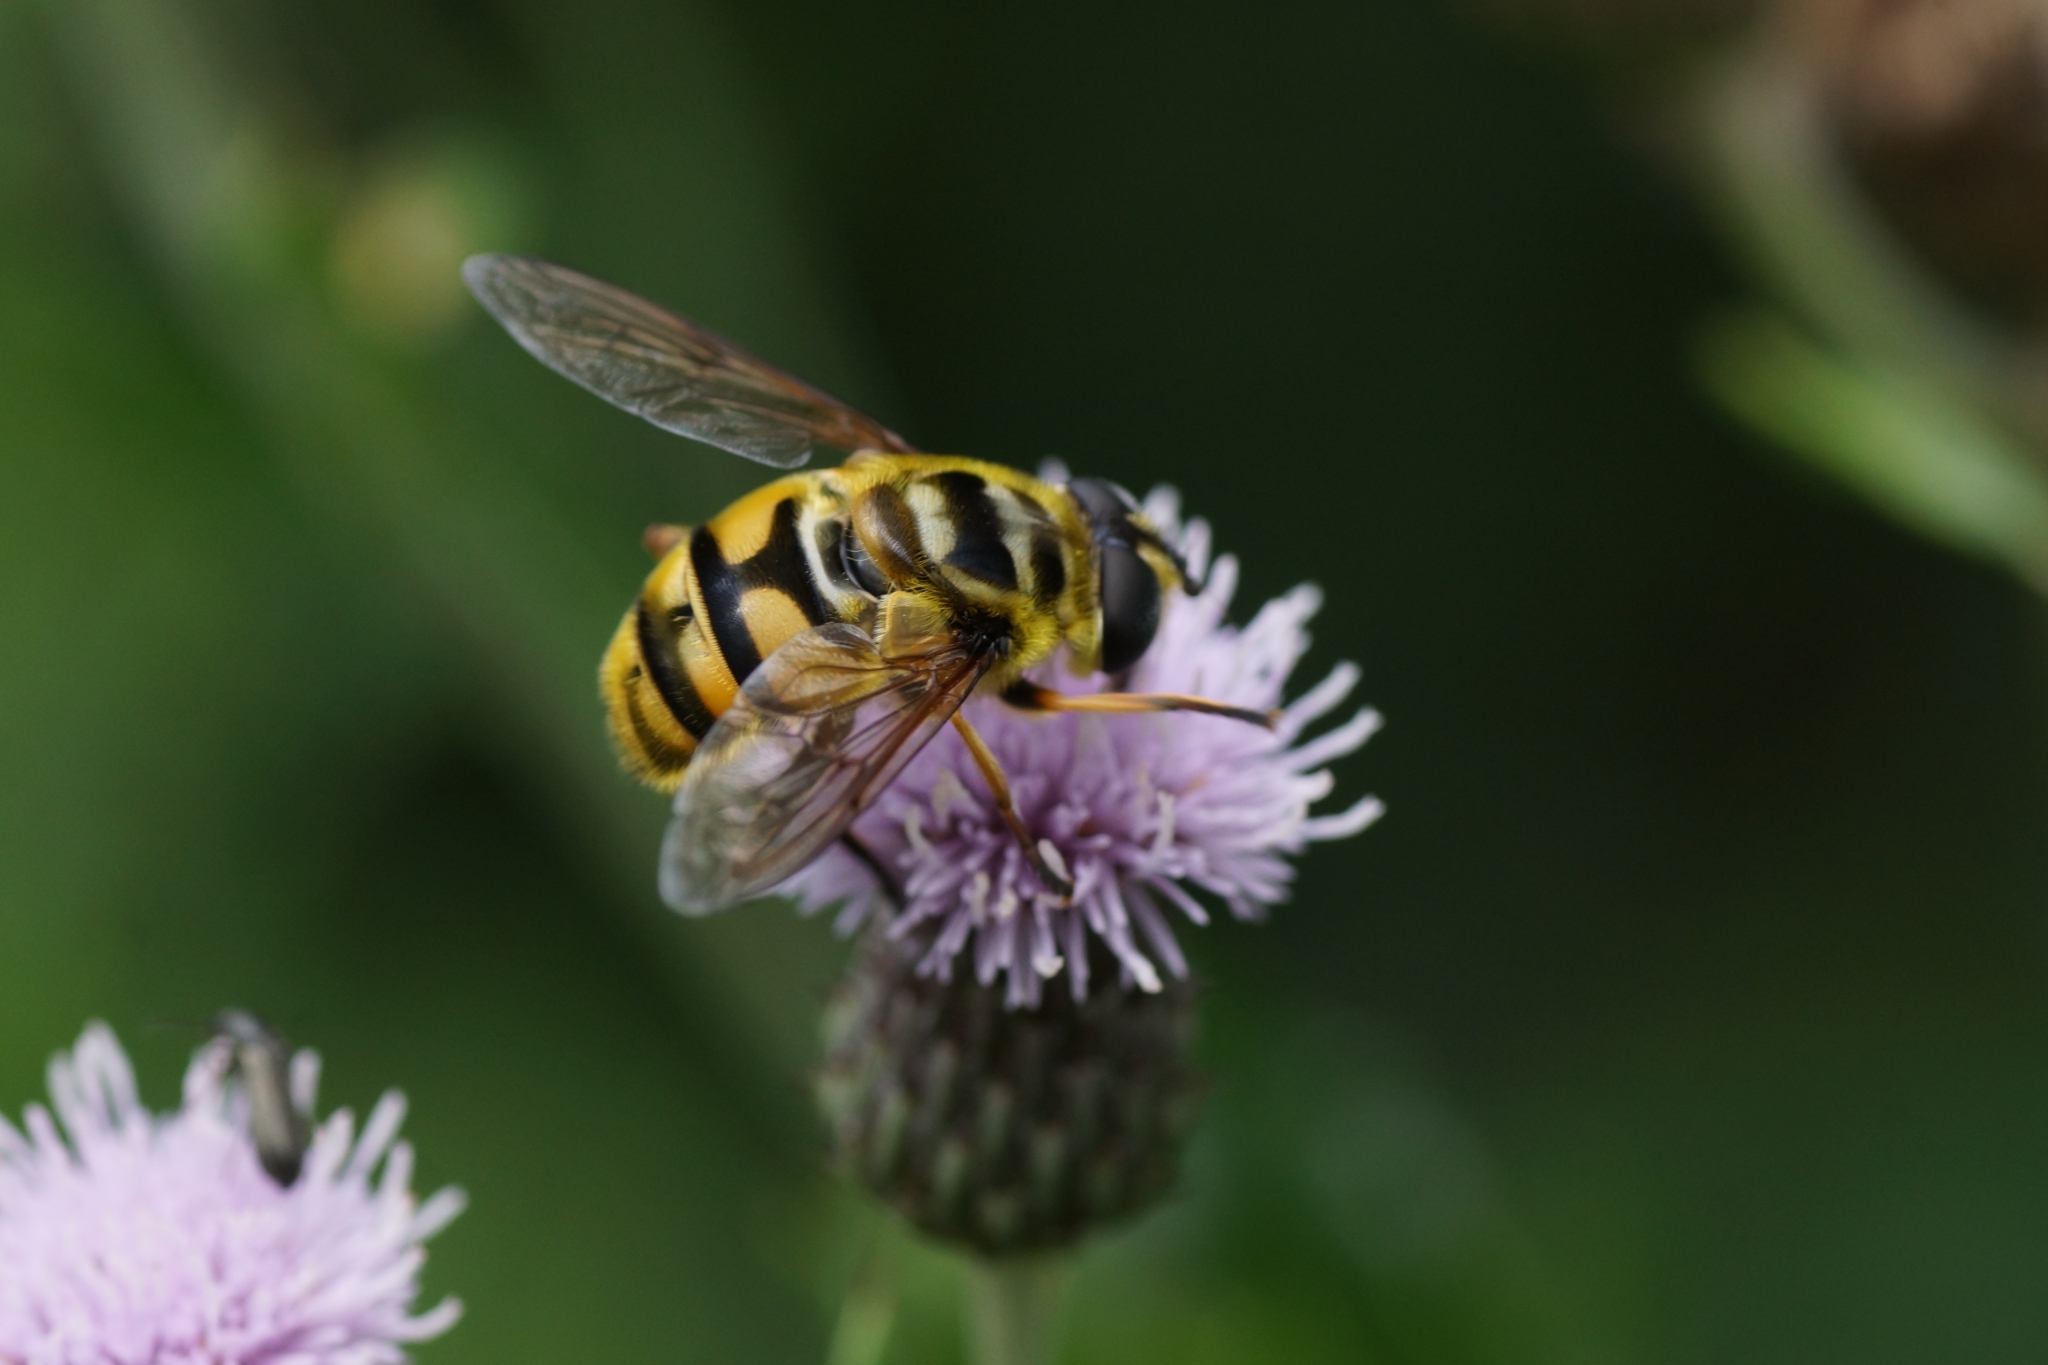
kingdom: Animalia
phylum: Arthropoda
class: Insecta
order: Diptera
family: Syrphidae
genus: Myathropa
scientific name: Myathropa florea
